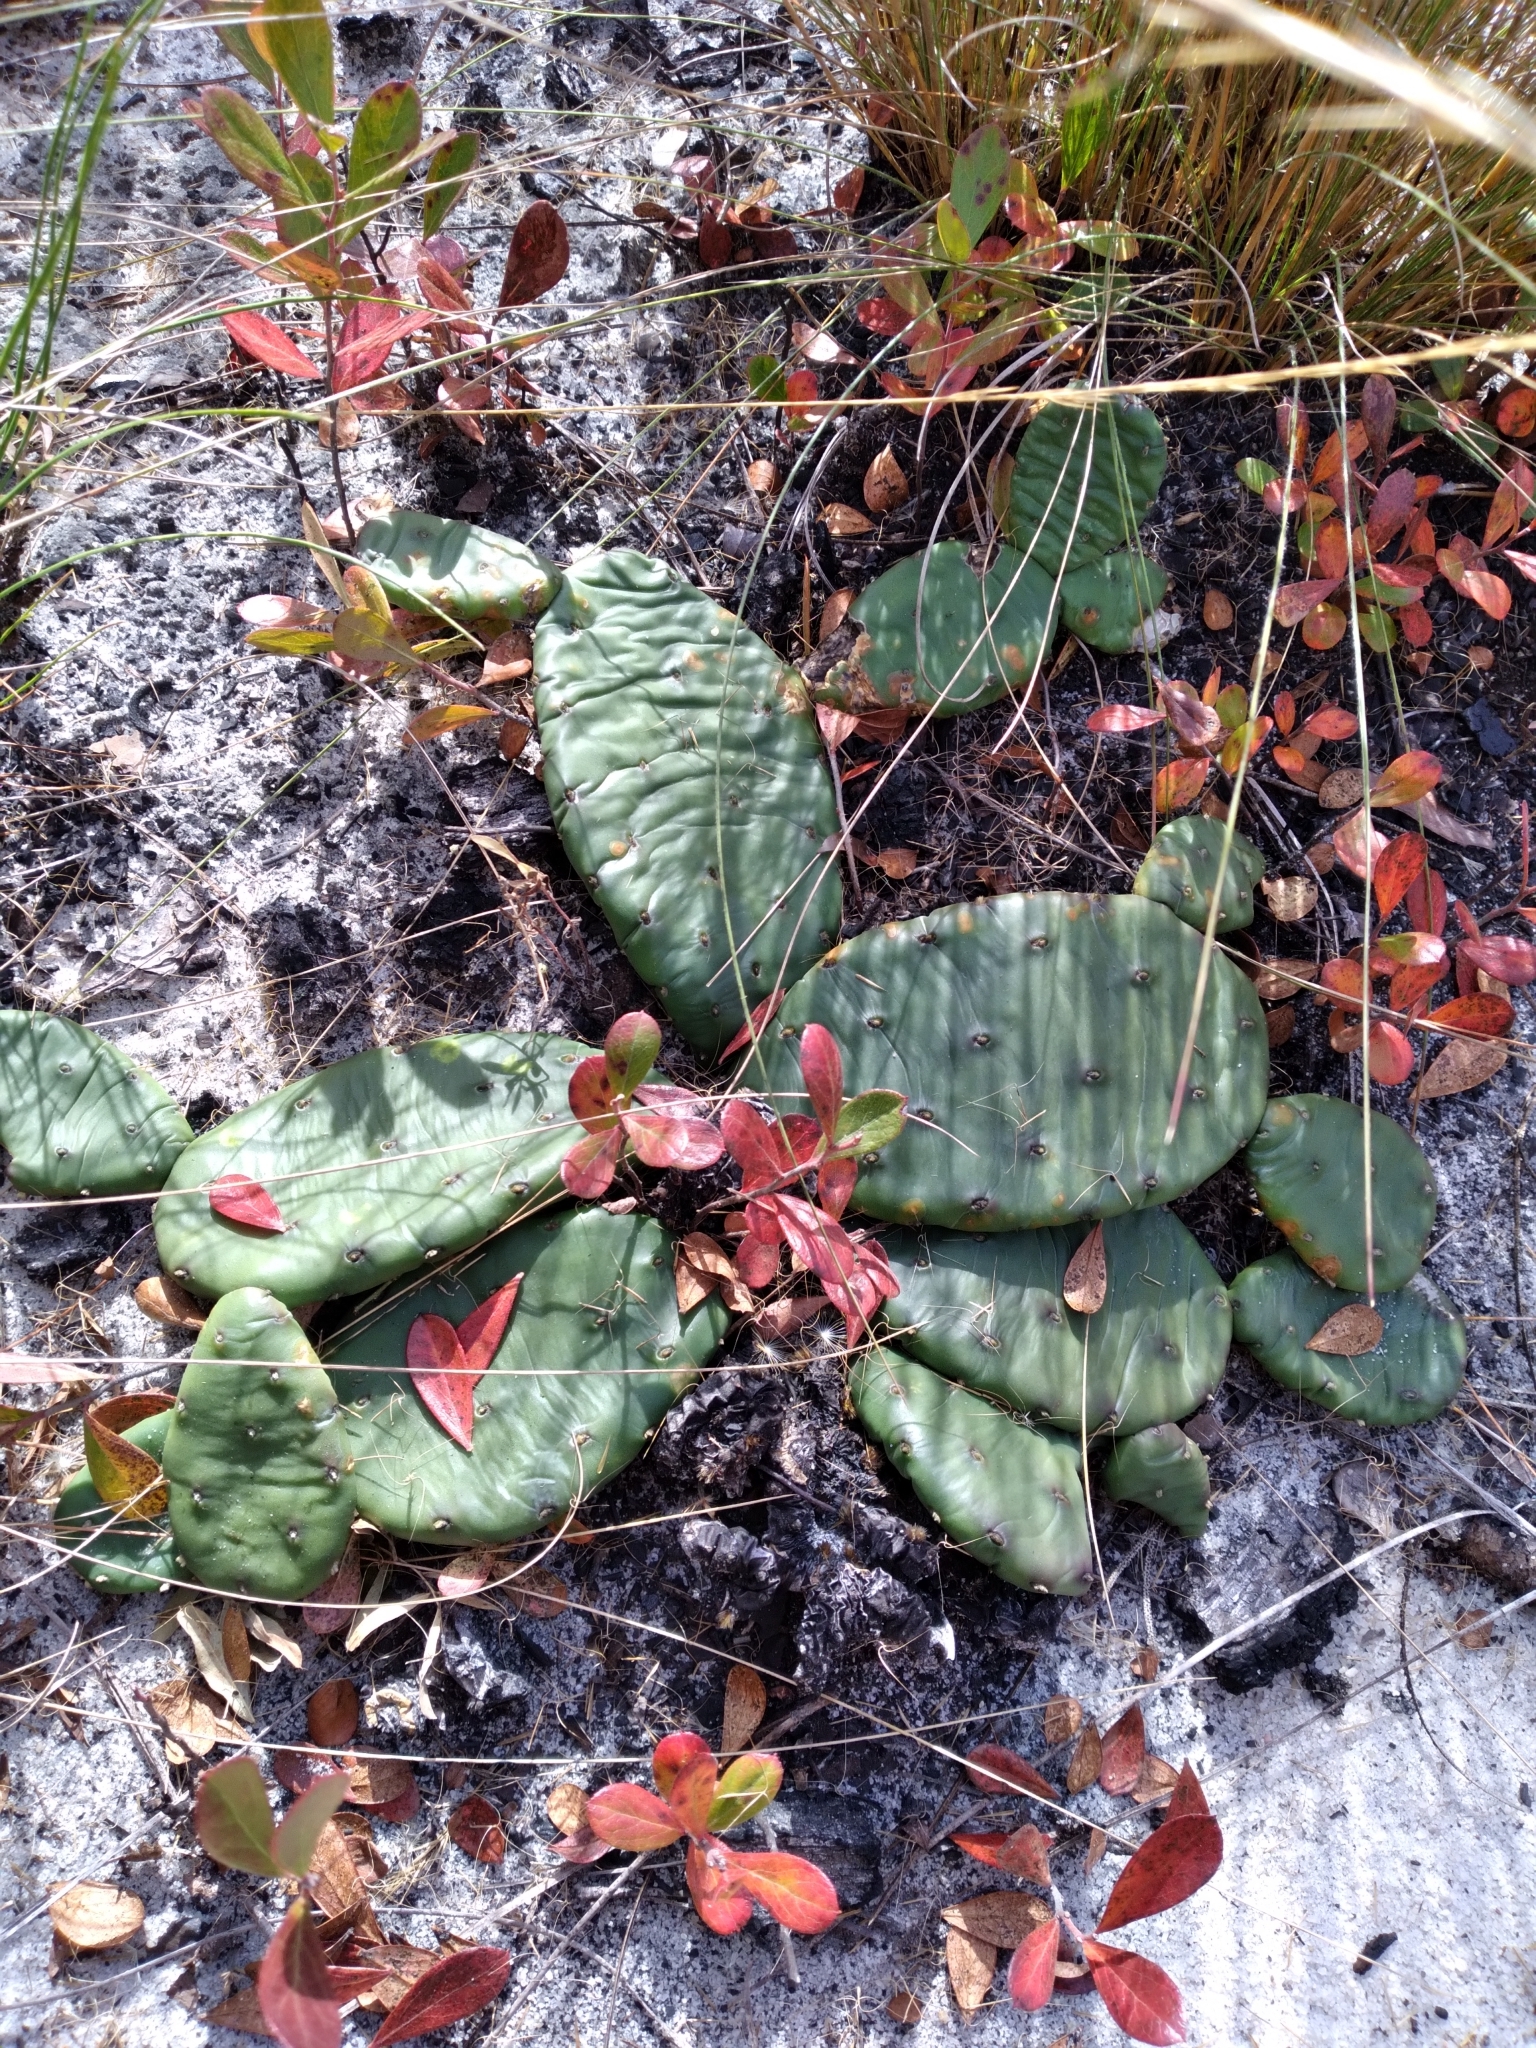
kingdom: Plantae
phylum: Tracheophyta
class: Magnoliopsida
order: Caryophyllales
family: Cactaceae
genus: Opuntia
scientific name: Opuntia mesacantha
